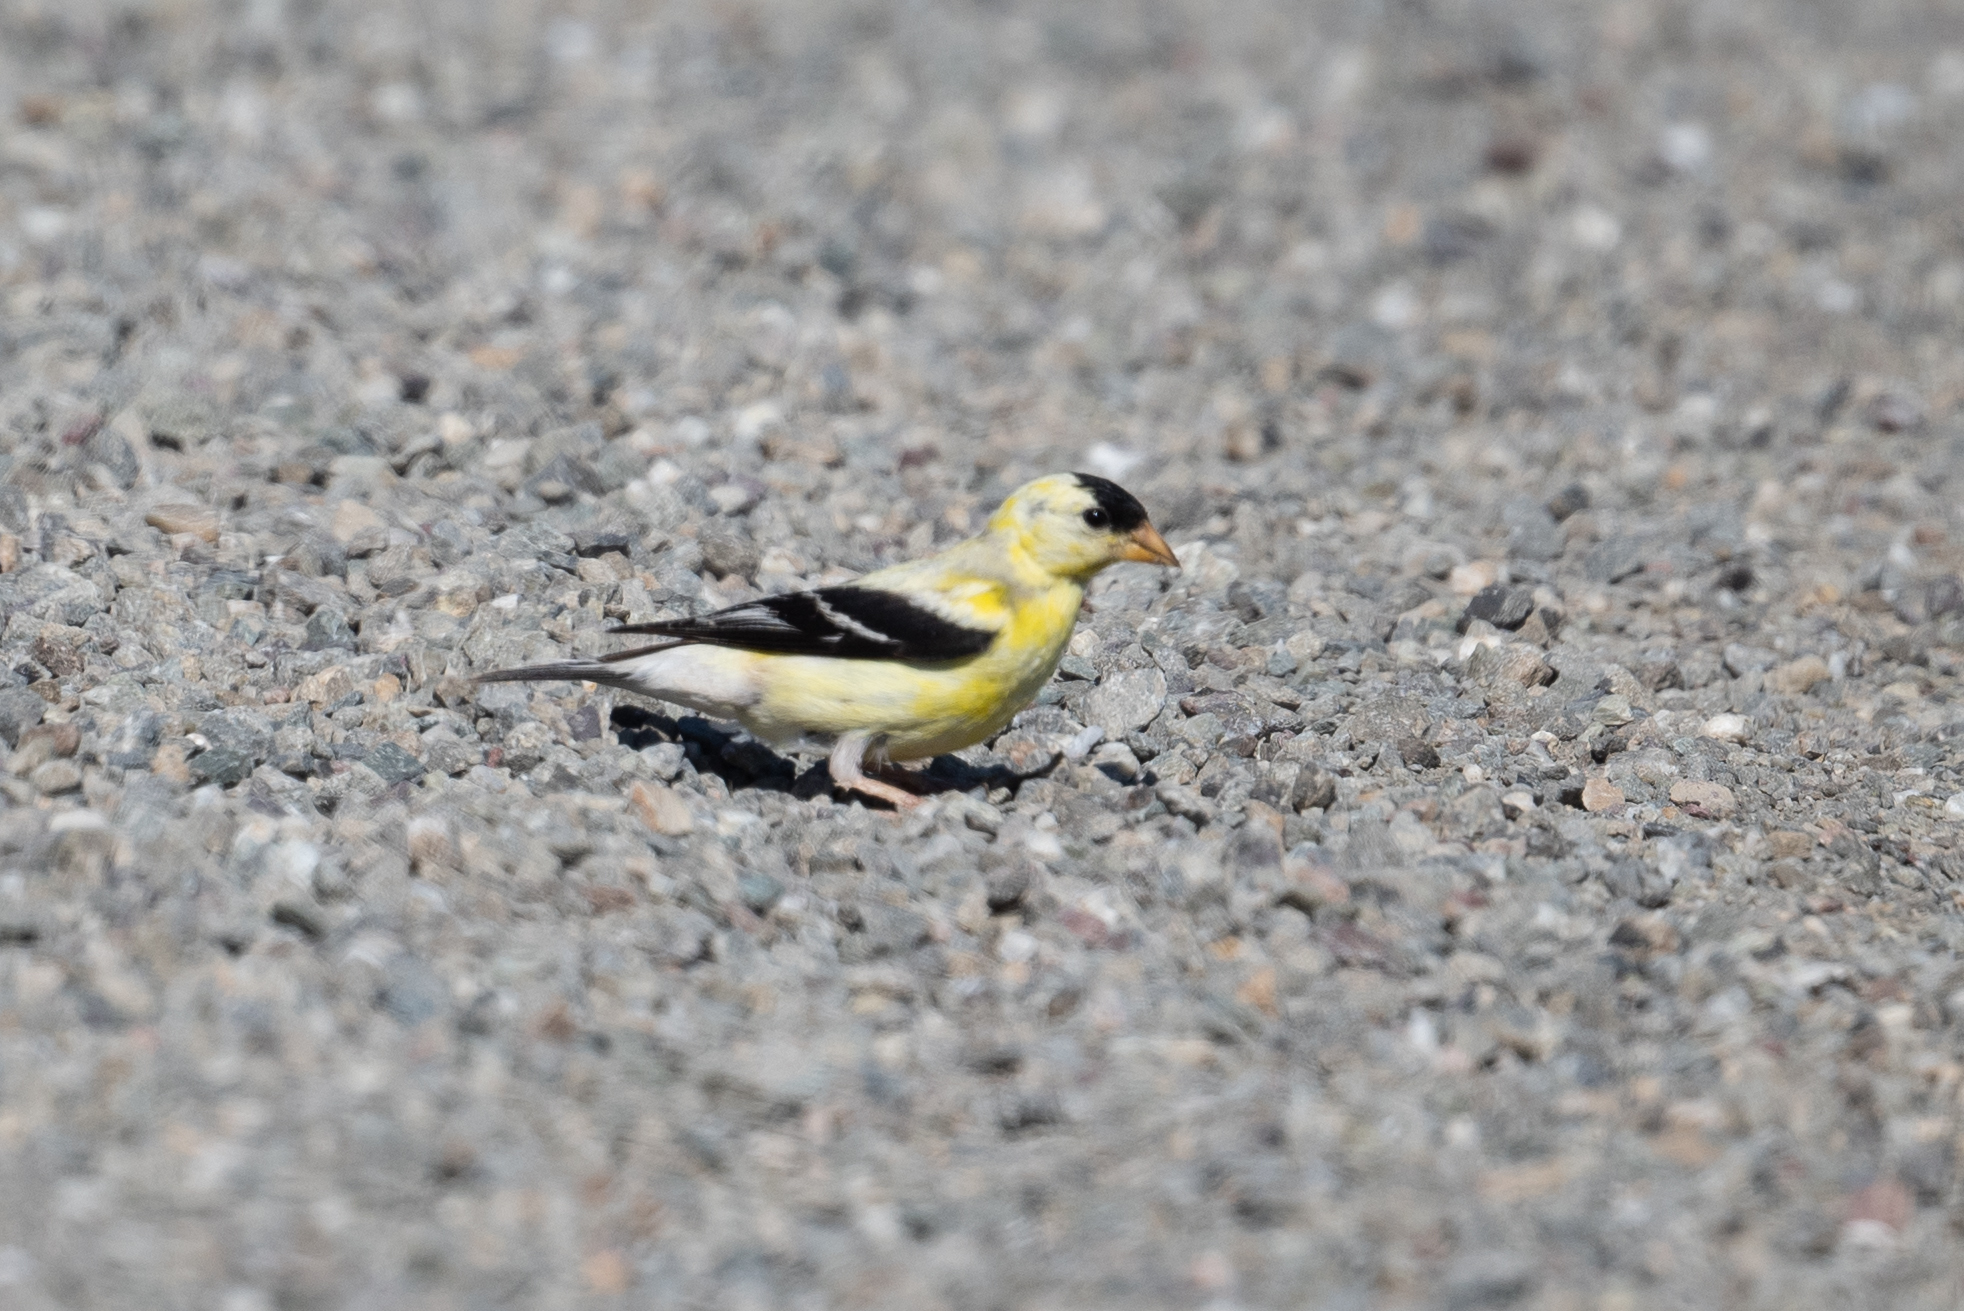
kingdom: Animalia
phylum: Chordata
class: Aves
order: Passeriformes
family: Fringillidae
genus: Spinus
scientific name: Spinus tristis
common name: American goldfinch
